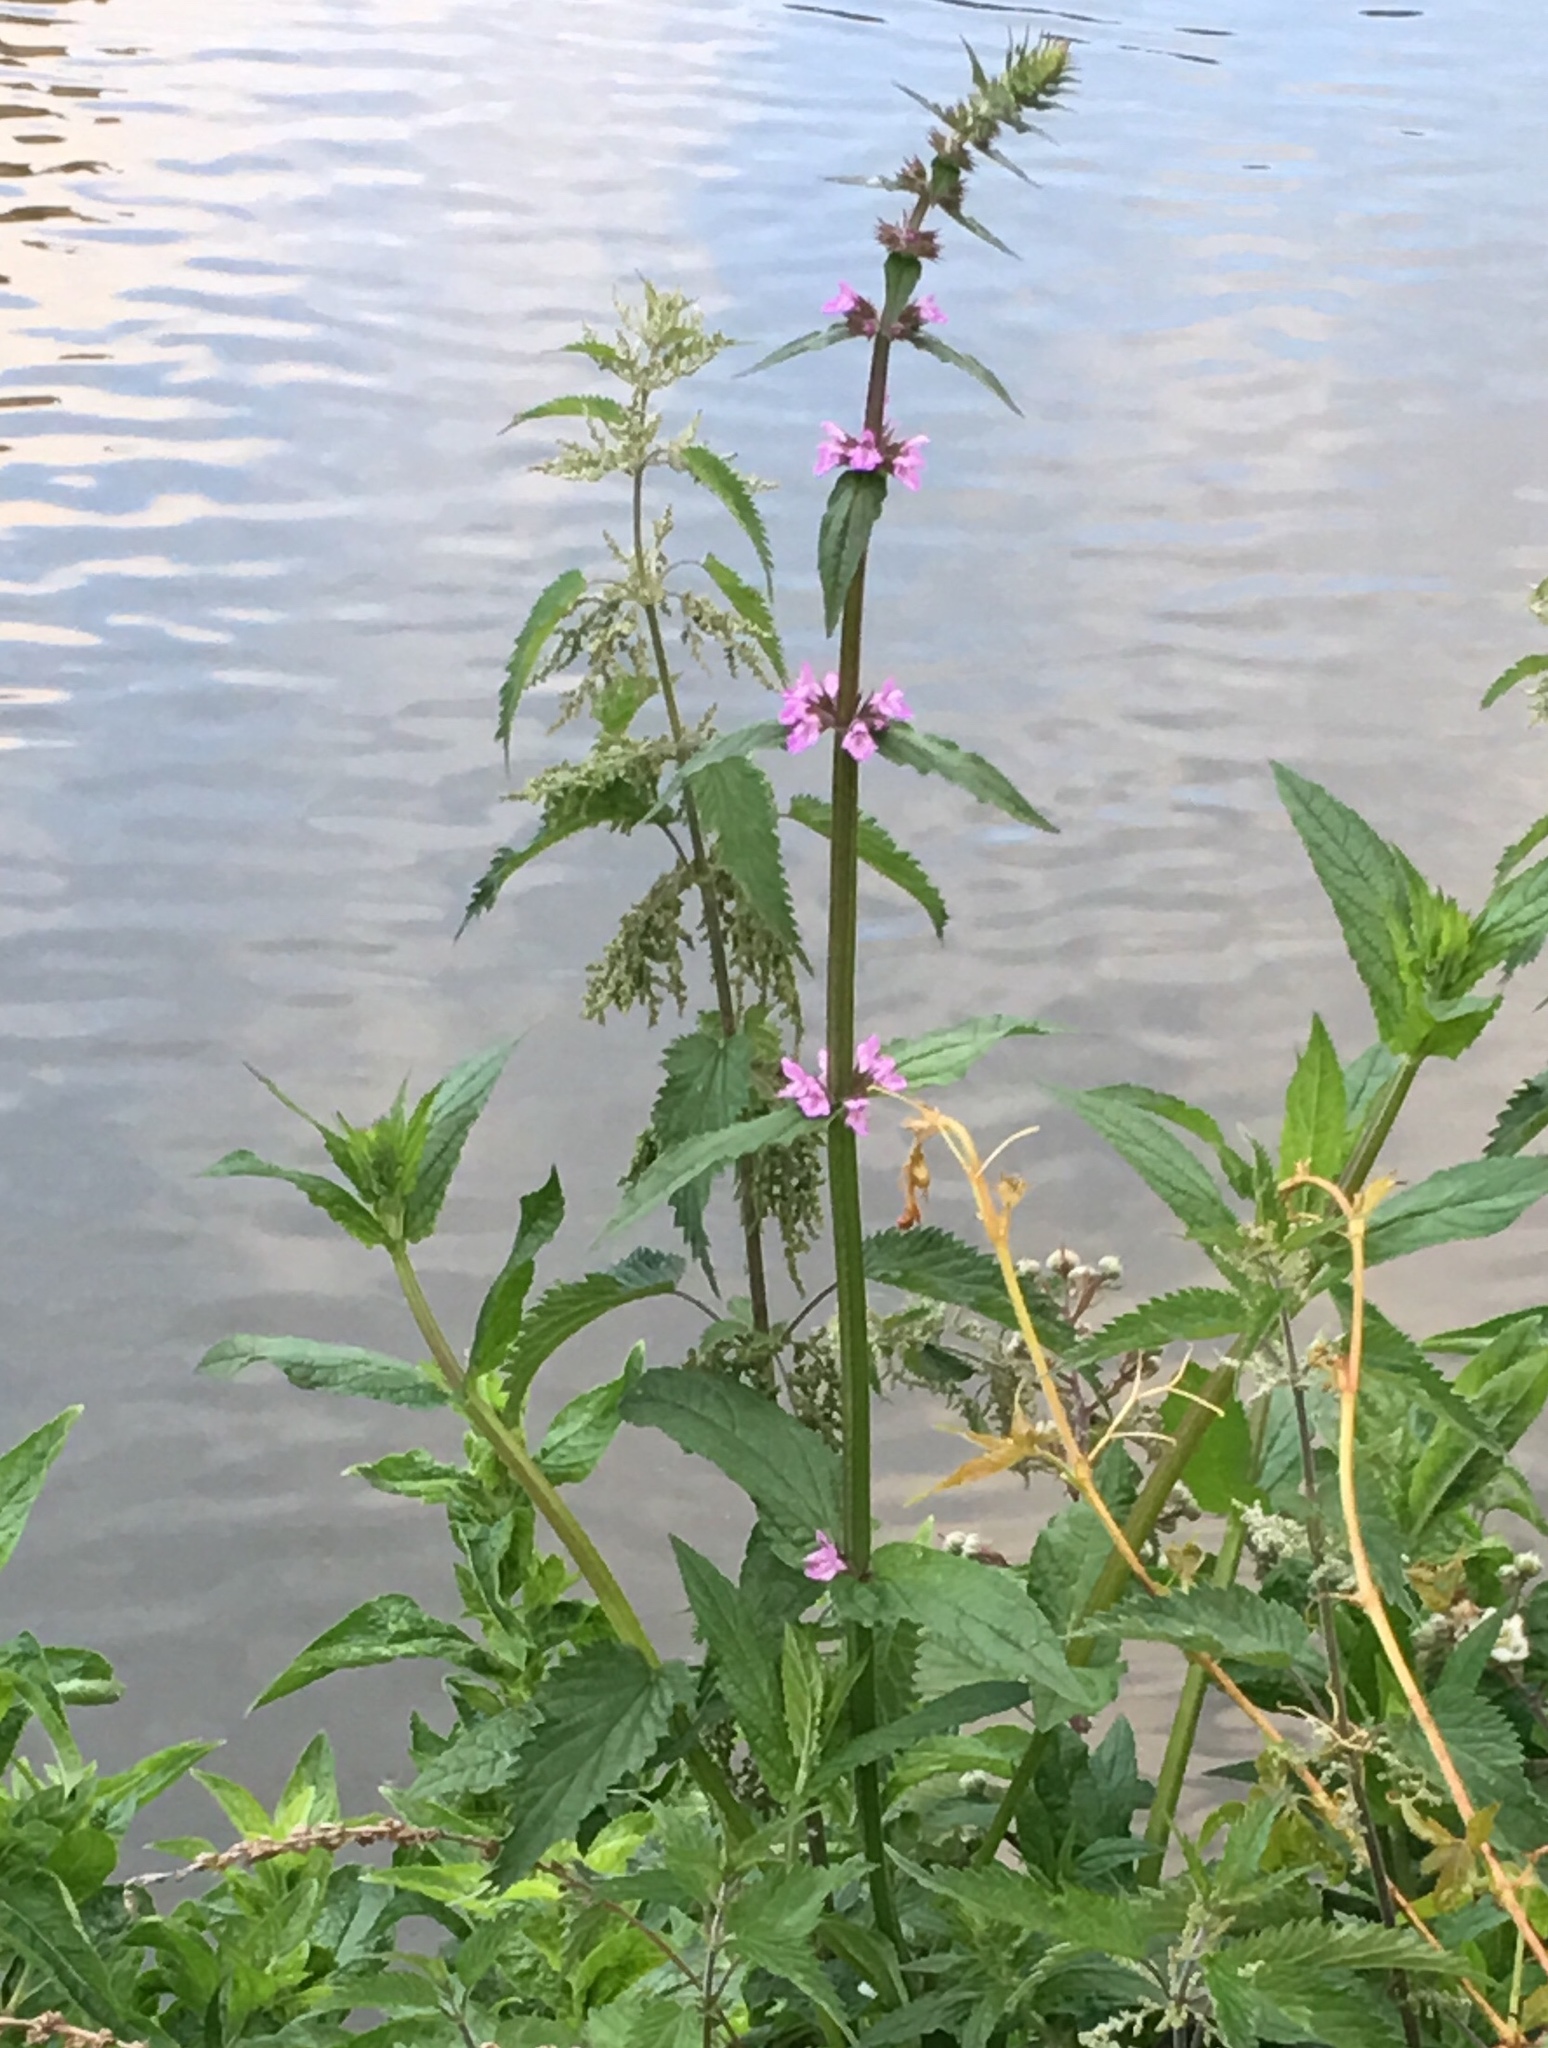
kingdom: Plantae
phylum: Tracheophyta
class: Magnoliopsida
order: Lamiales
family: Lamiaceae
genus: Stachys
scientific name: Stachys palustris
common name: Marsh woundwort
